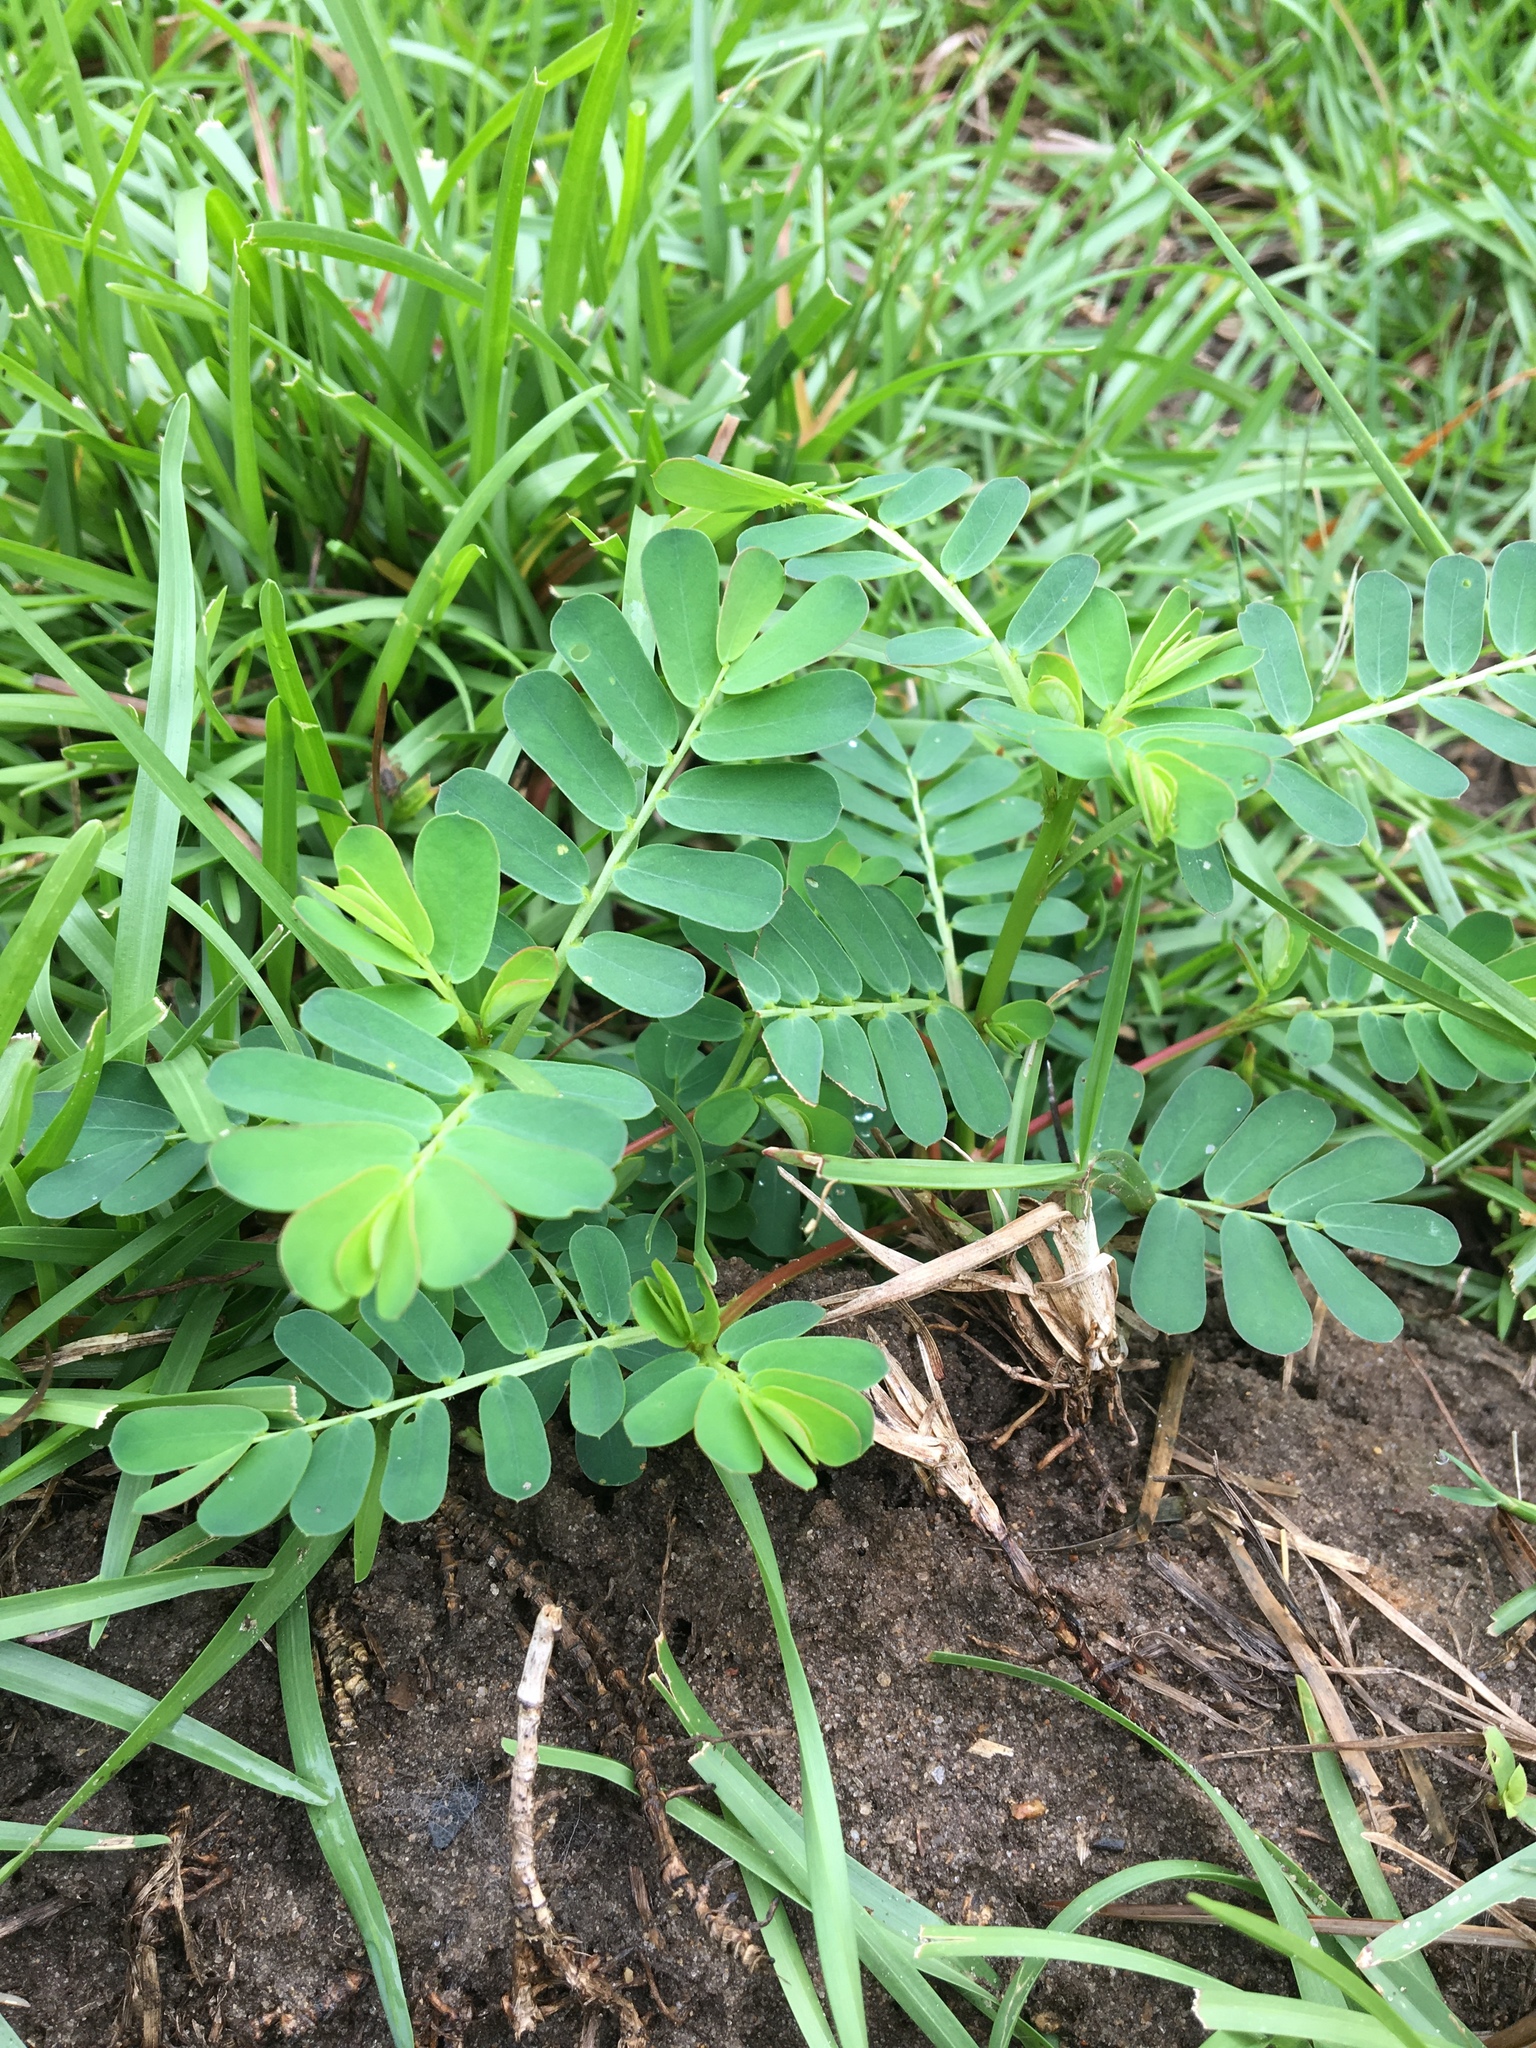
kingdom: Plantae
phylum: Tracheophyta
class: Magnoliopsida
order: Malpighiales
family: Phyllanthaceae
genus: Phyllanthus
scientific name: Phyllanthus urinaria
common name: Chamber bitter
